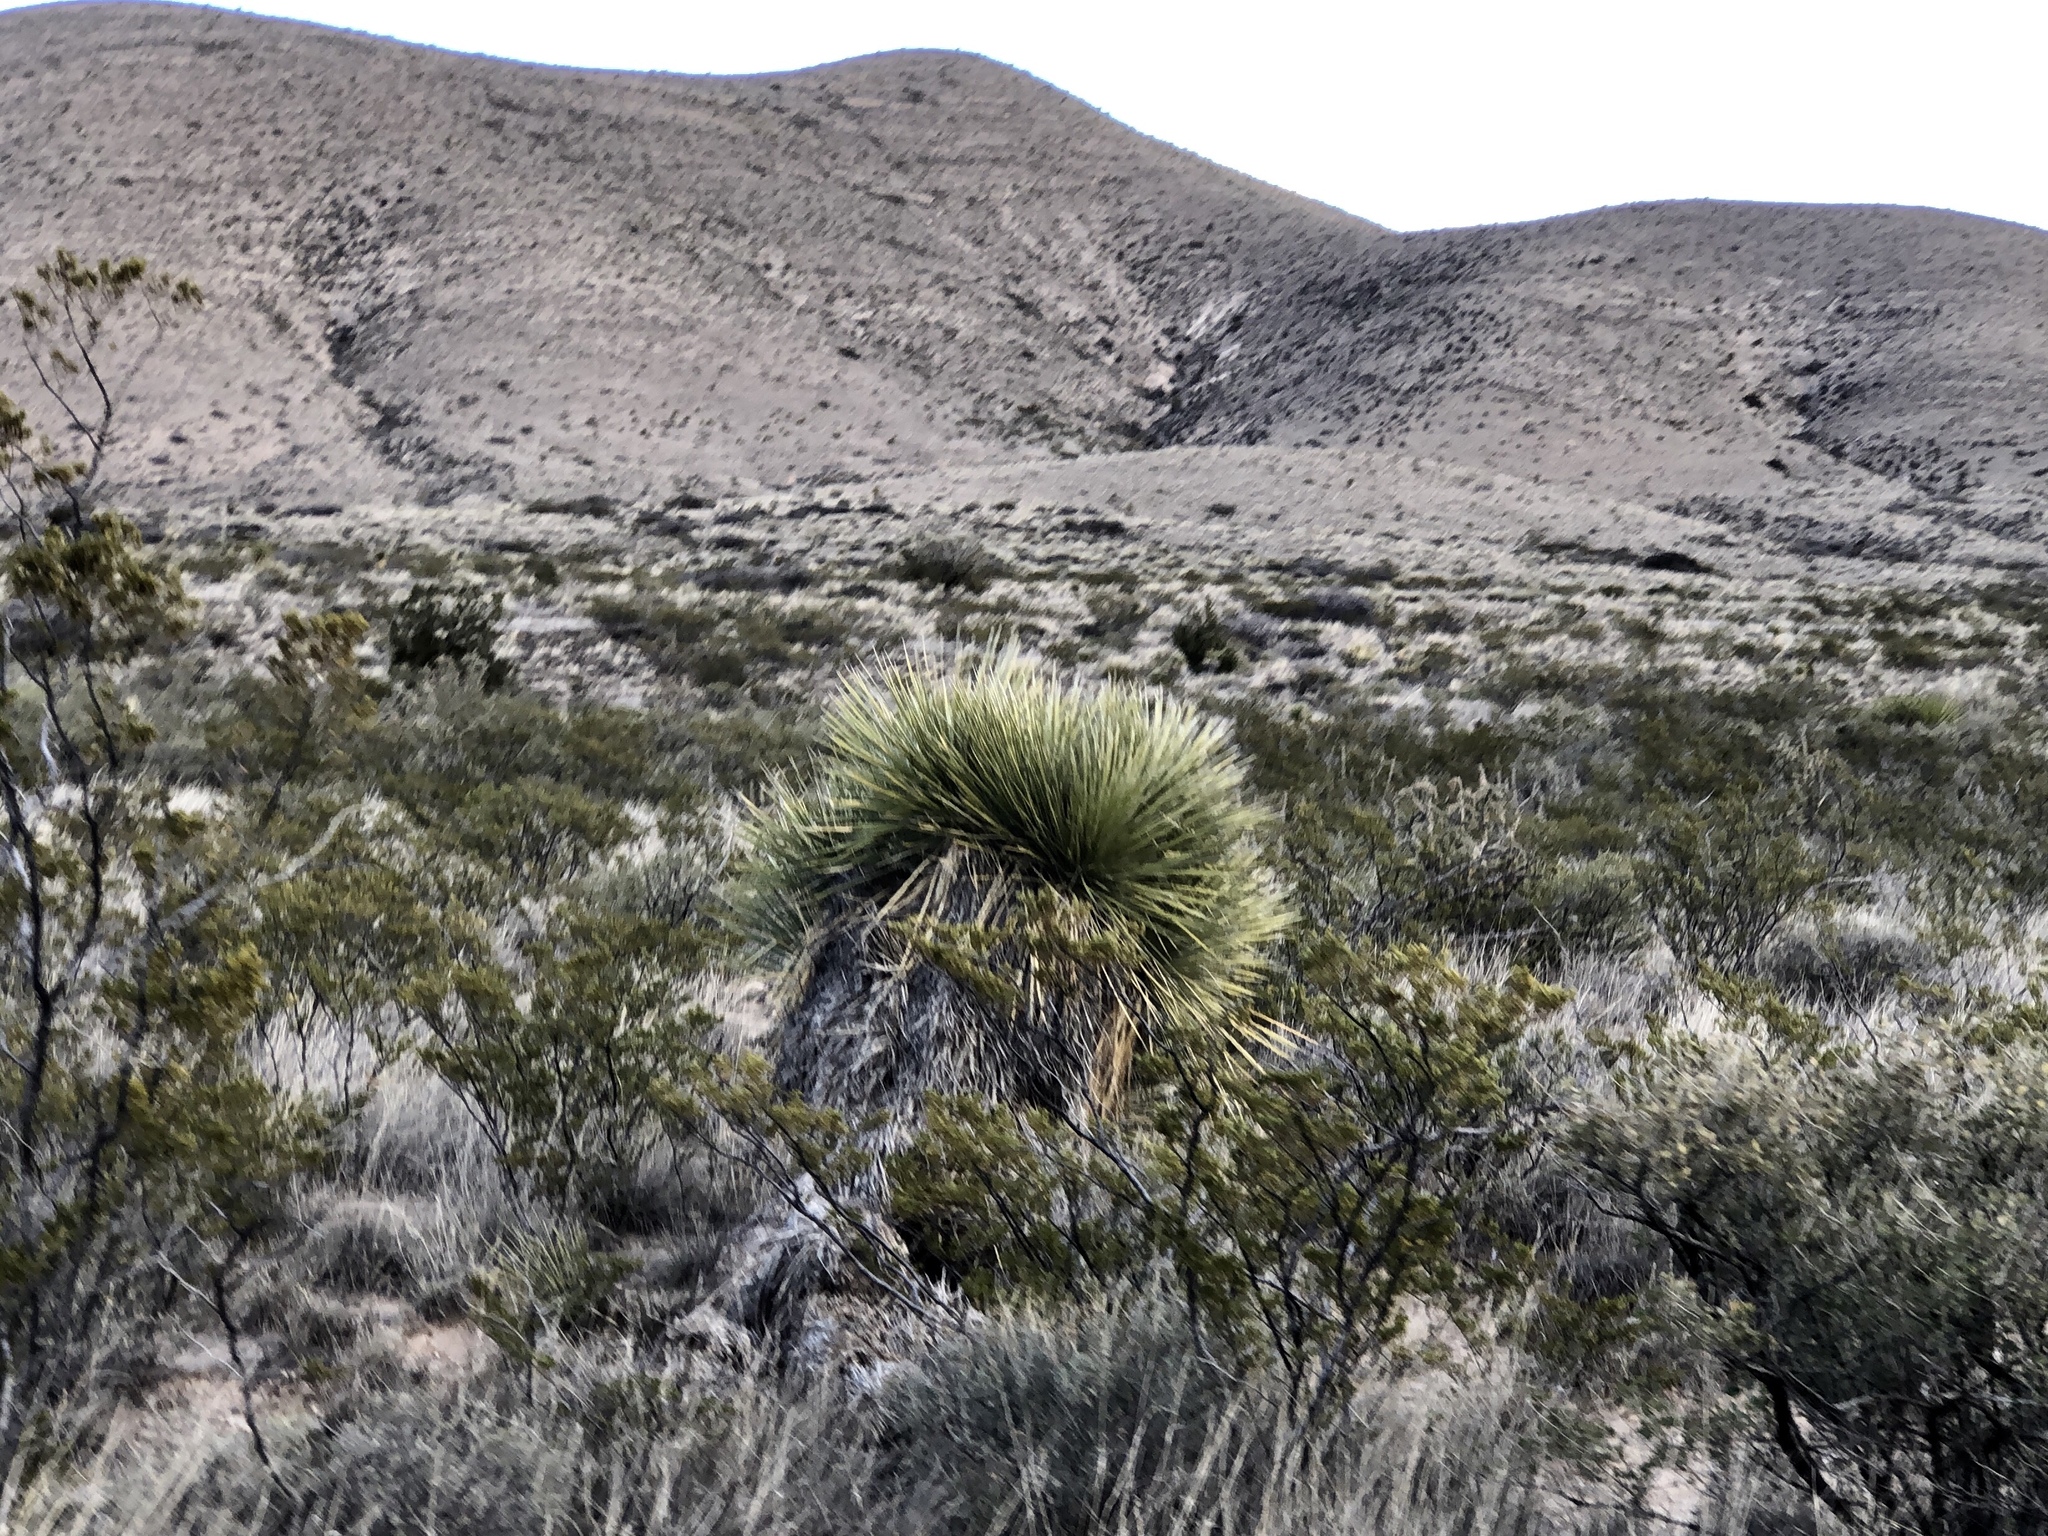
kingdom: Plantae
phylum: Tracheophyta
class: Liliopsida
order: Asparagales
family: Asparagaceae
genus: Yucca
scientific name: Yucca elata
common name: Palmella
